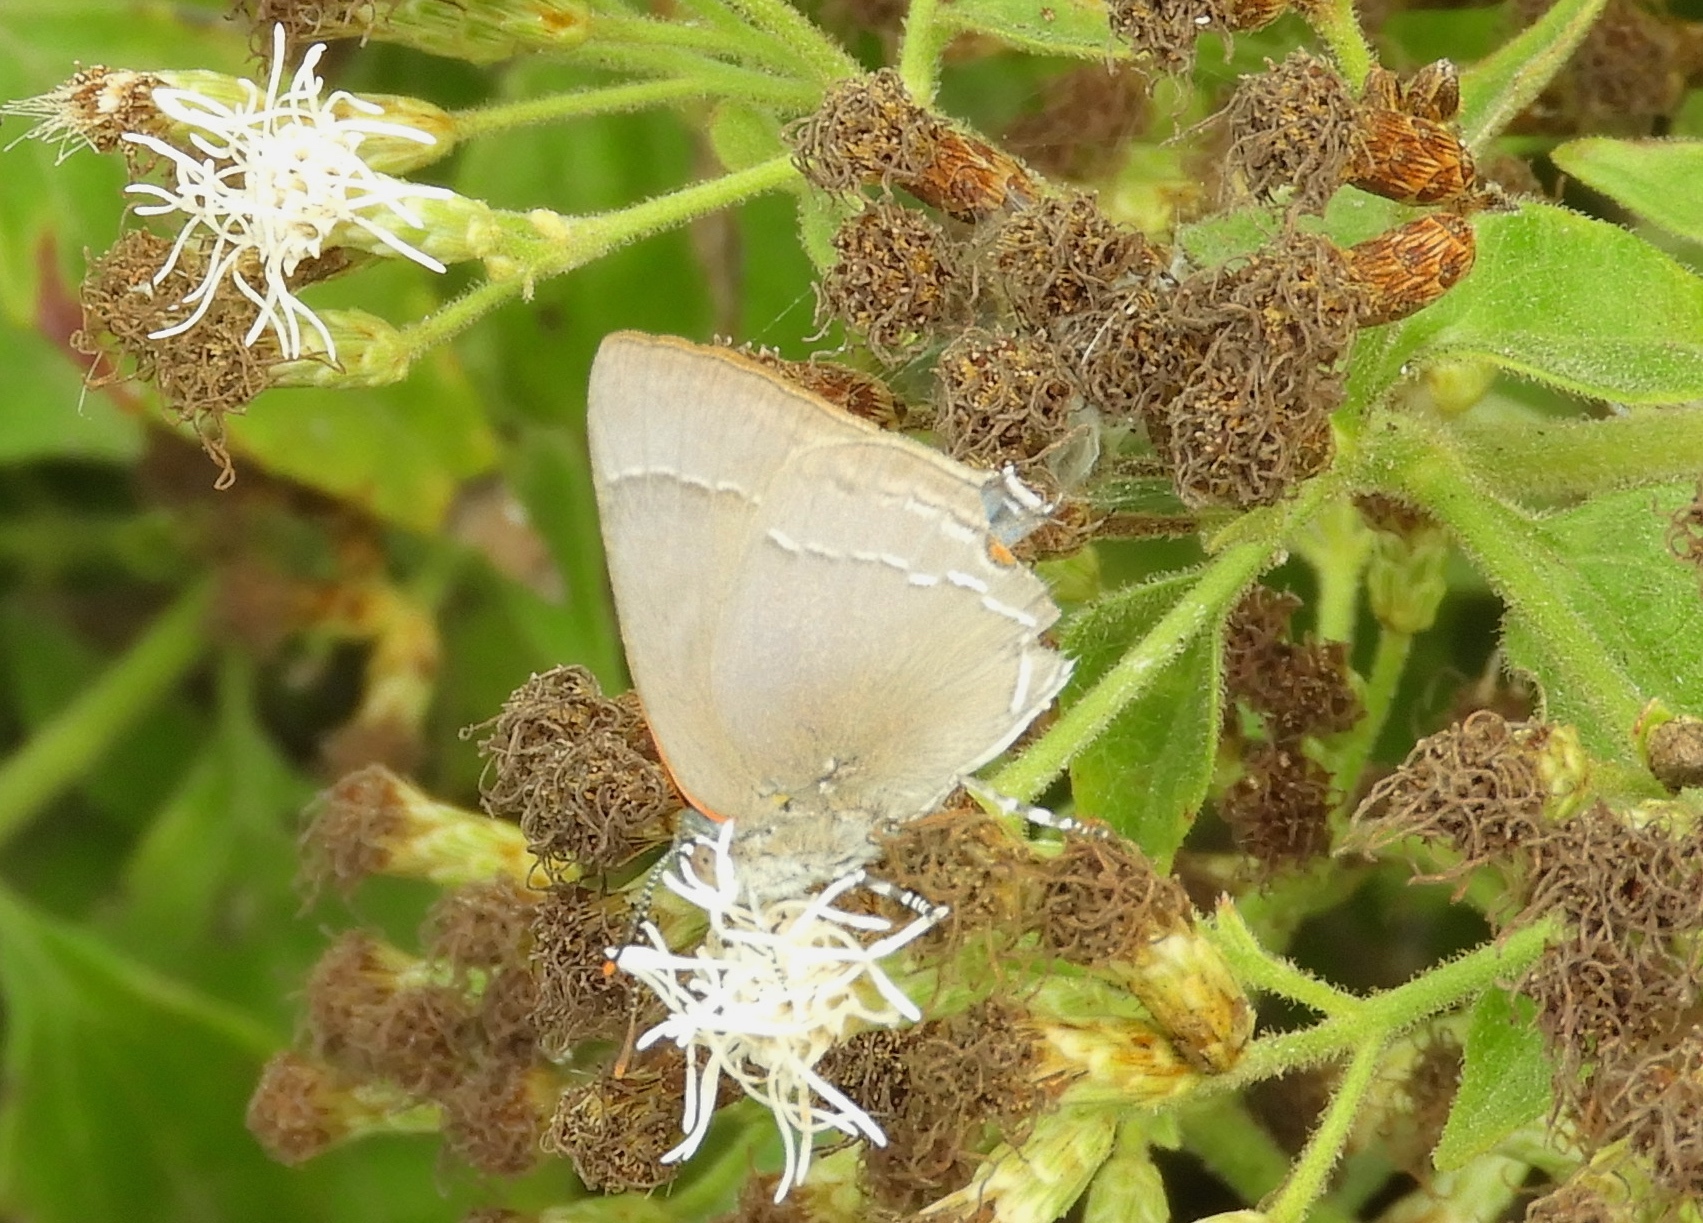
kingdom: Animalia
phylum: Arthropoda
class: Insecta
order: Lepidoptera
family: Lycaenidae
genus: Rekoa
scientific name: Rekoa
